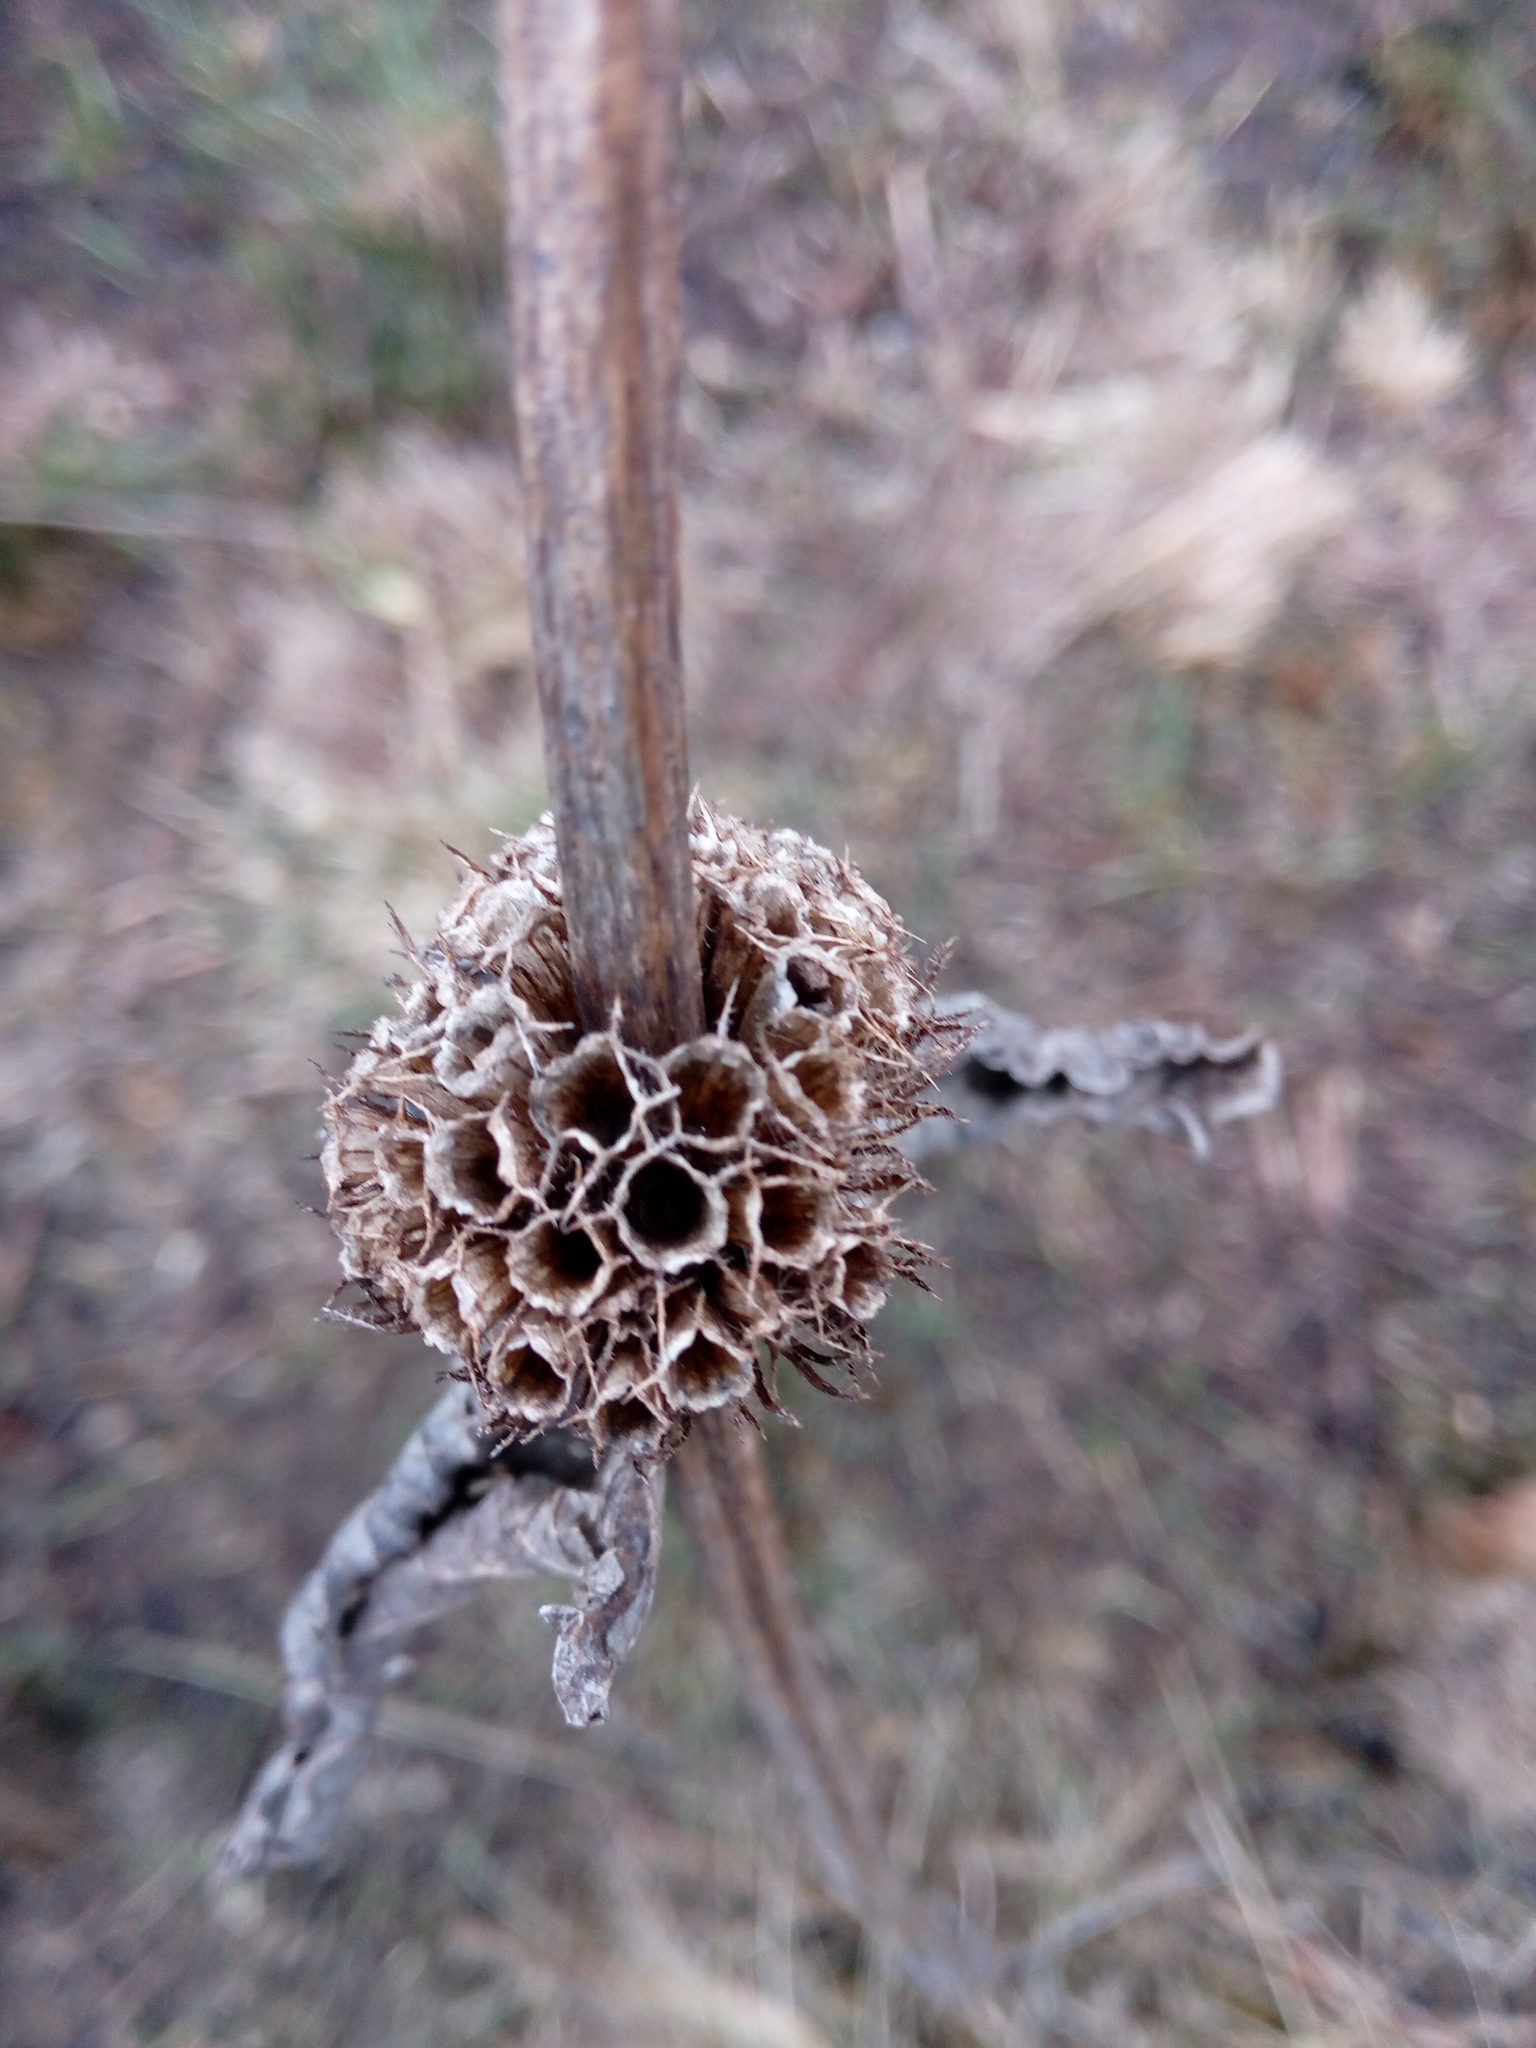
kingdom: Plantae
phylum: Tracheophyta
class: Magnoliopsida
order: Lamiales
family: Lamiaceae
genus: Phlomoides
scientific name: Phlomoides tuberosa
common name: Tuberous jerusalem sage
